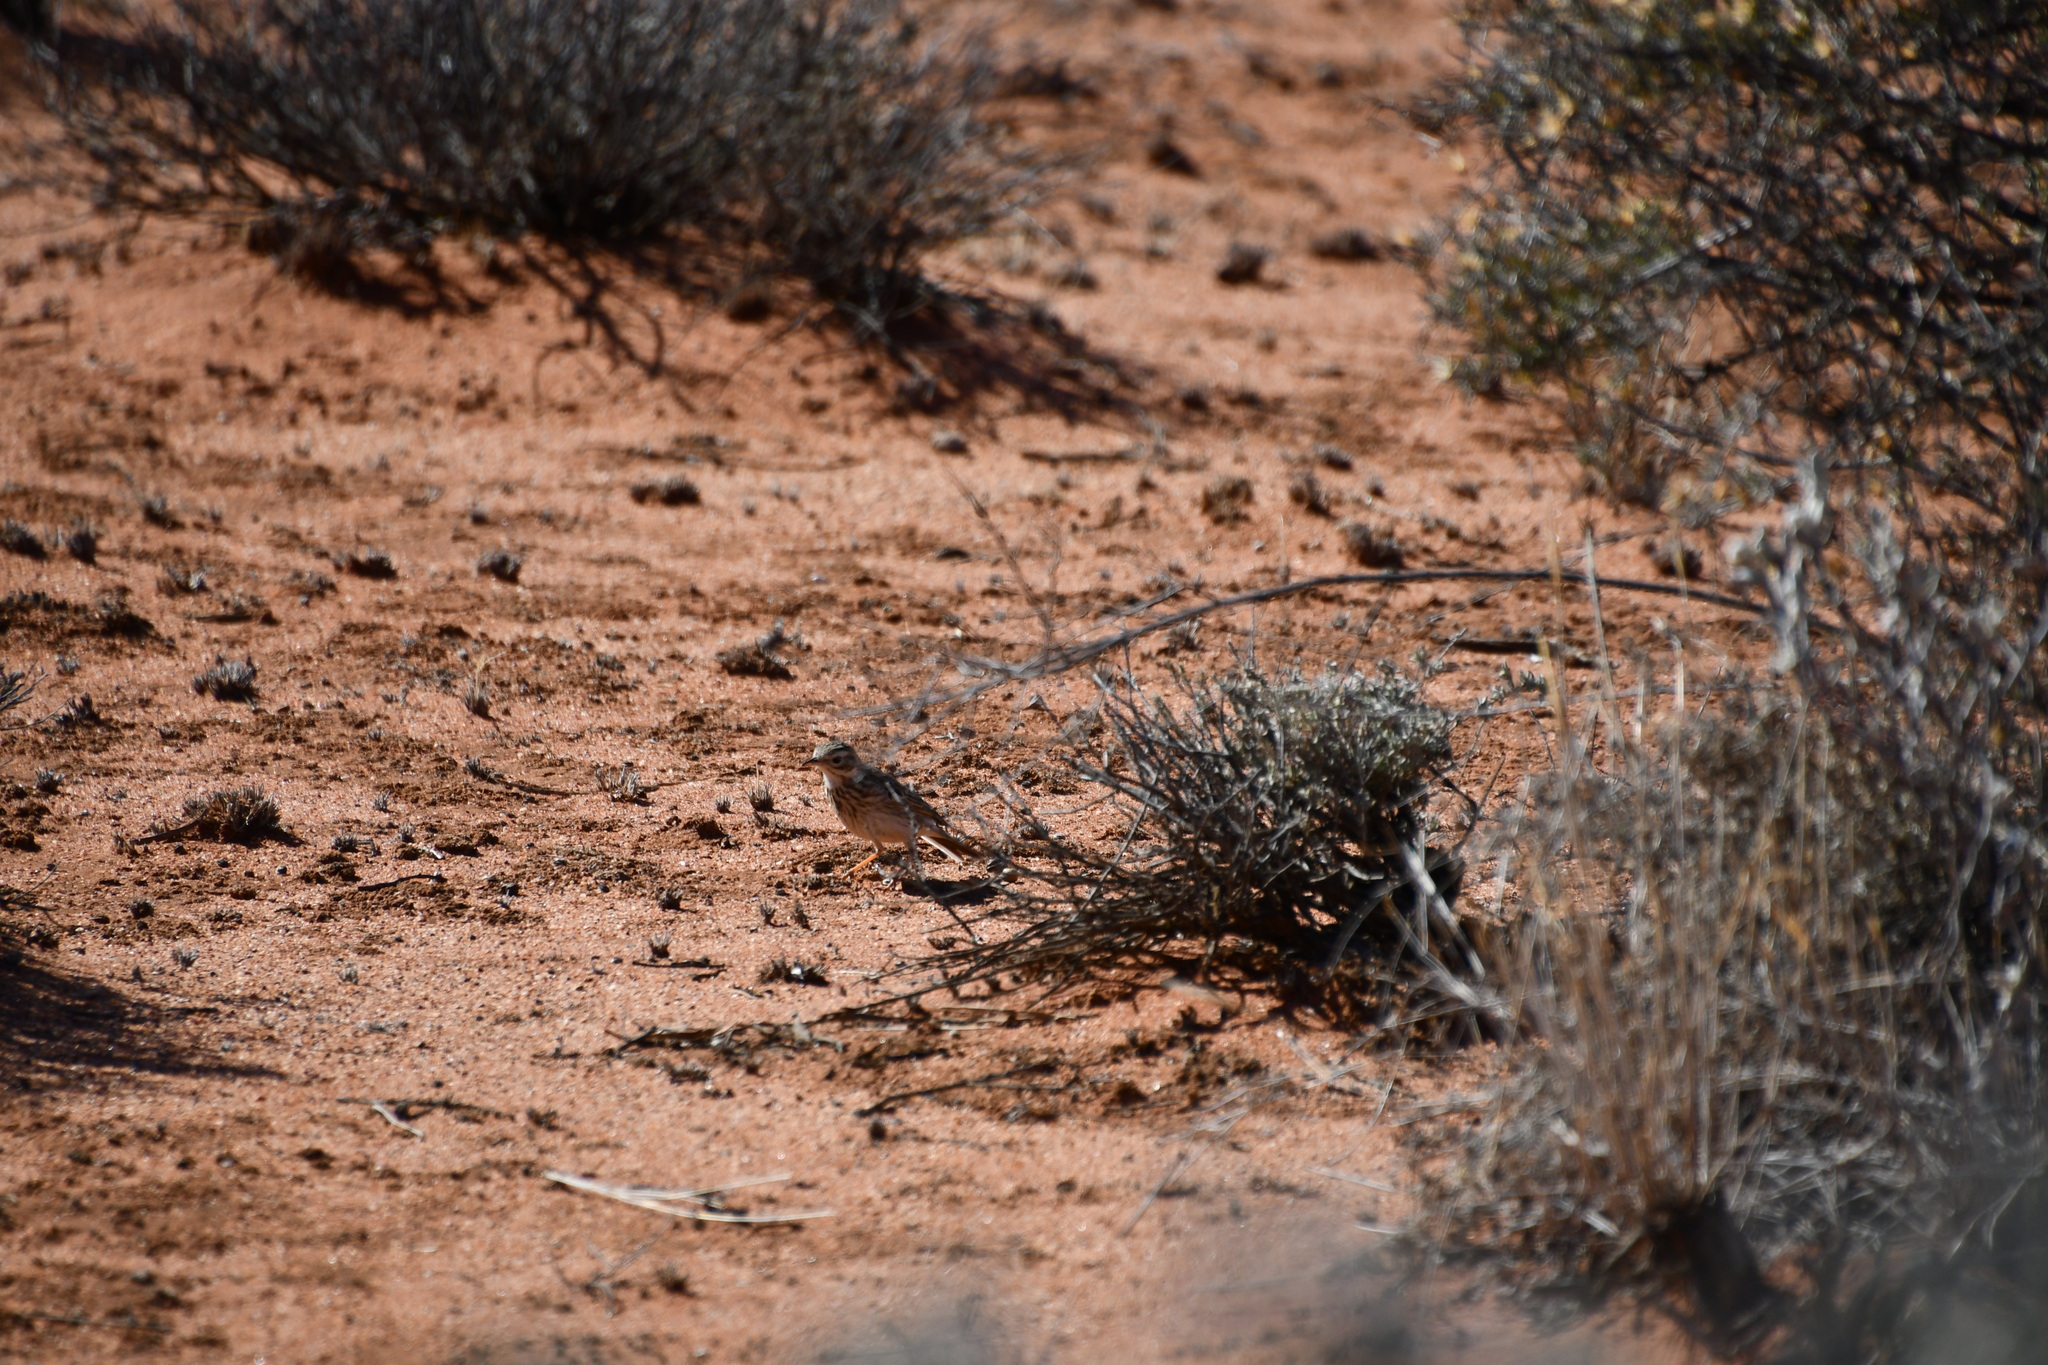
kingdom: Animalia
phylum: Chordata
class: Aves
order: Passeriformes
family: Motacillidae
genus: Anthus
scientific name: Anthus australis
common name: Australian pipit
